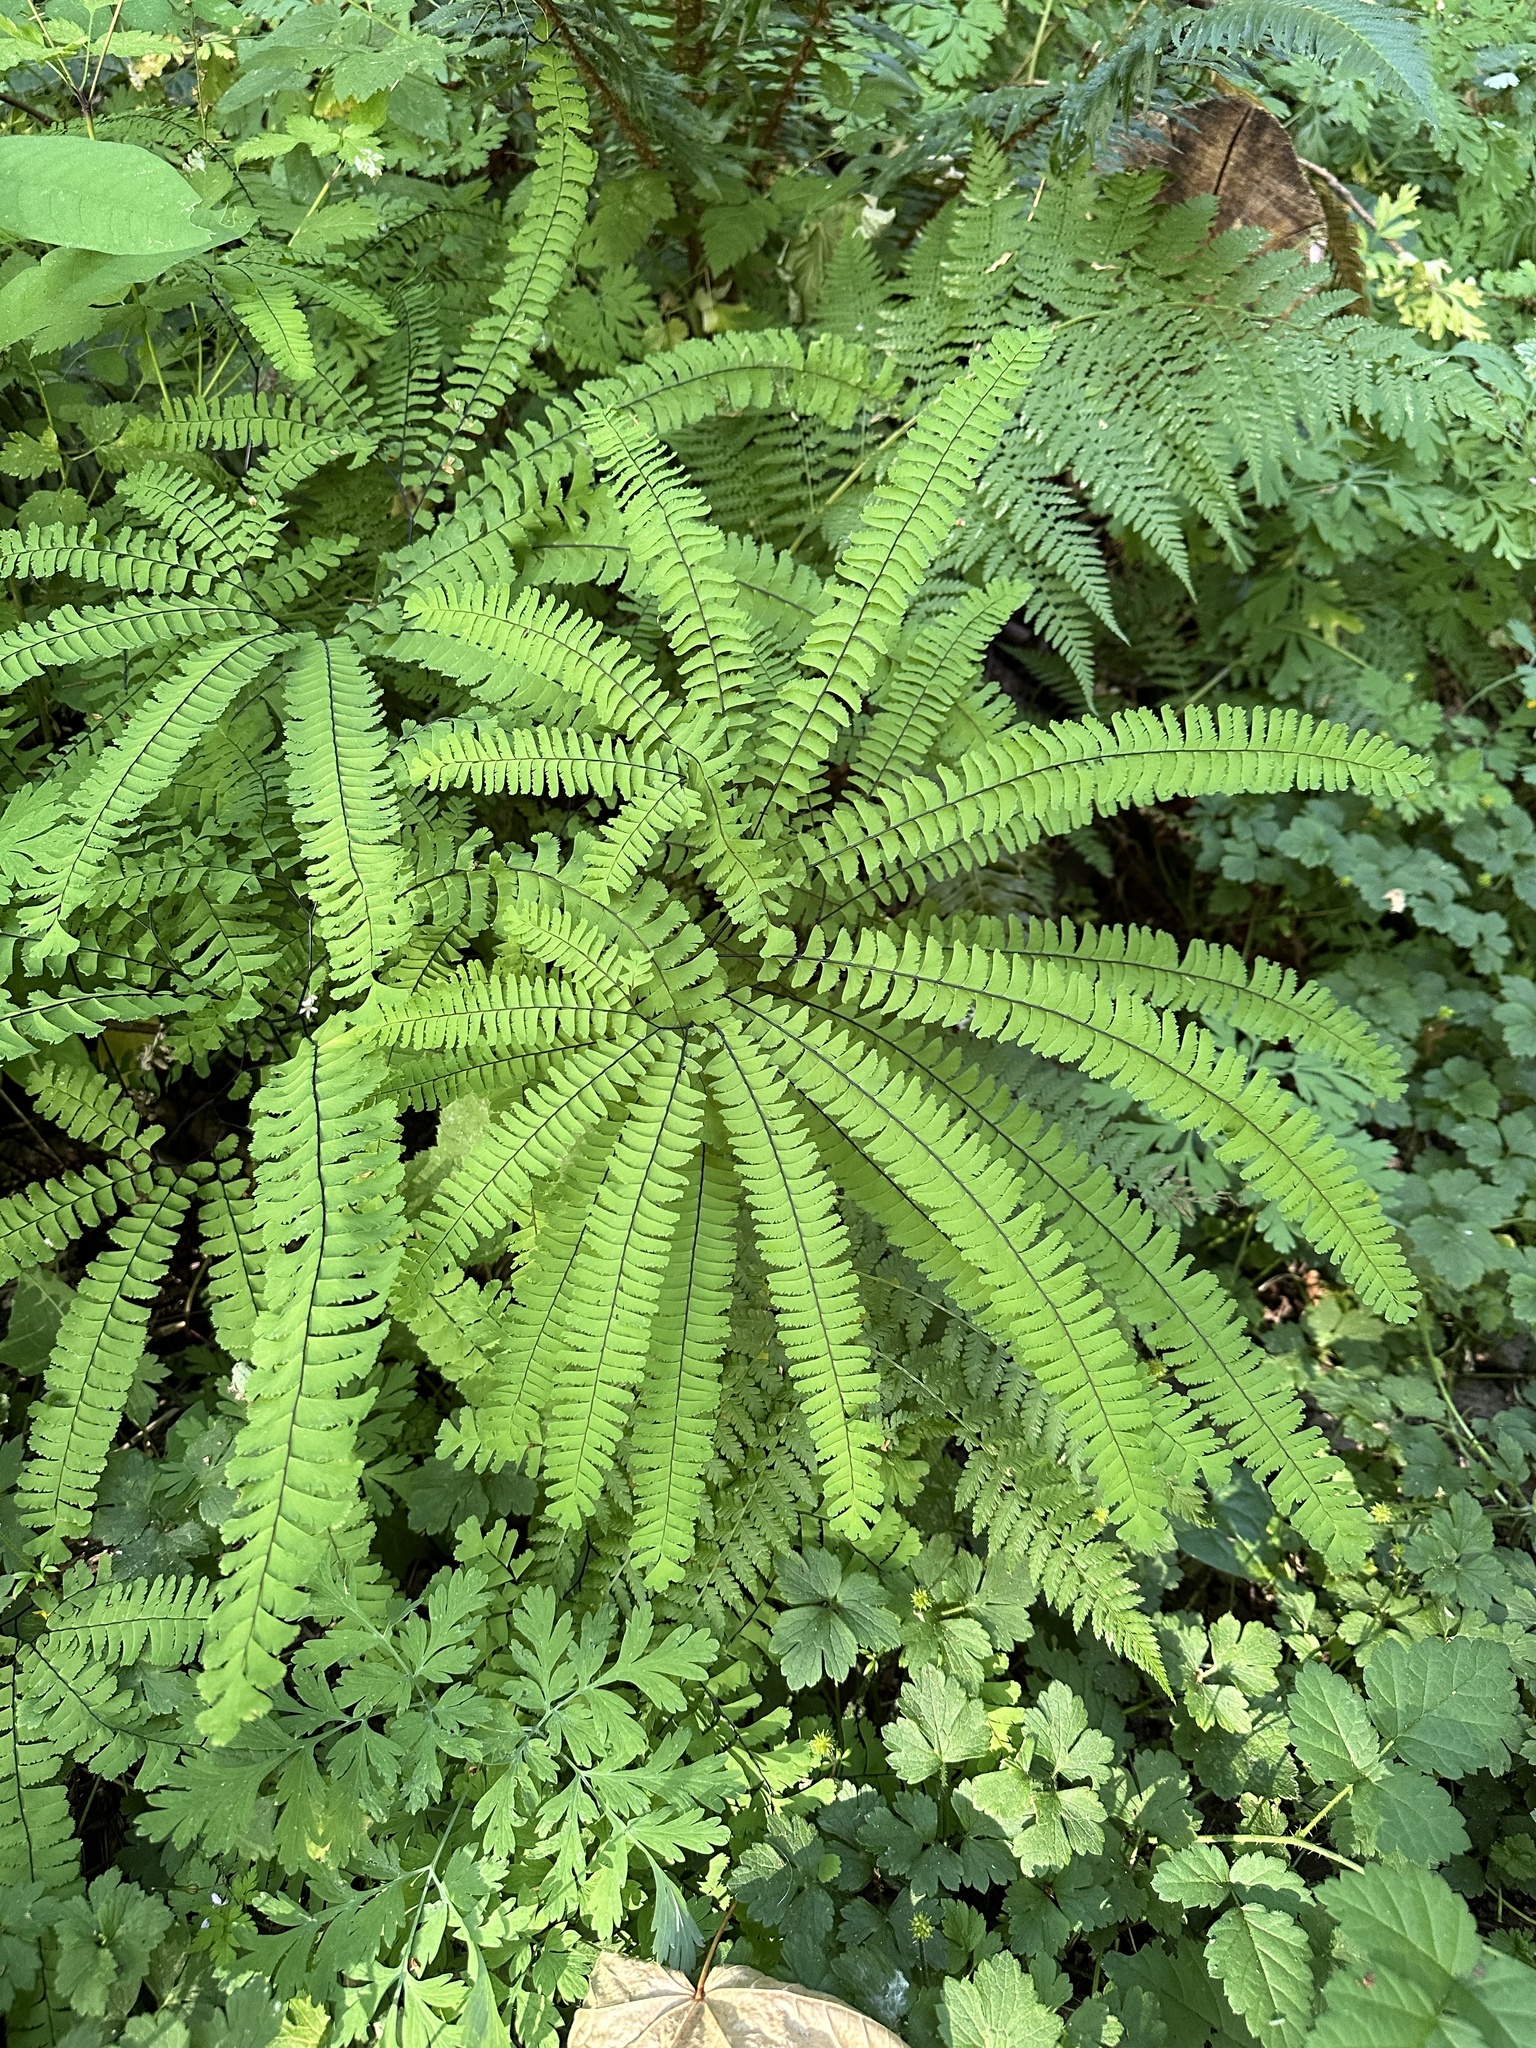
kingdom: Plantae
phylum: Tracheophyta
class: Polypodiopsida
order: Polypodiales
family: Pteridaceae
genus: Adiantum
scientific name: Adiantum aleuticum
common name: Aleutian maidenhair fern
